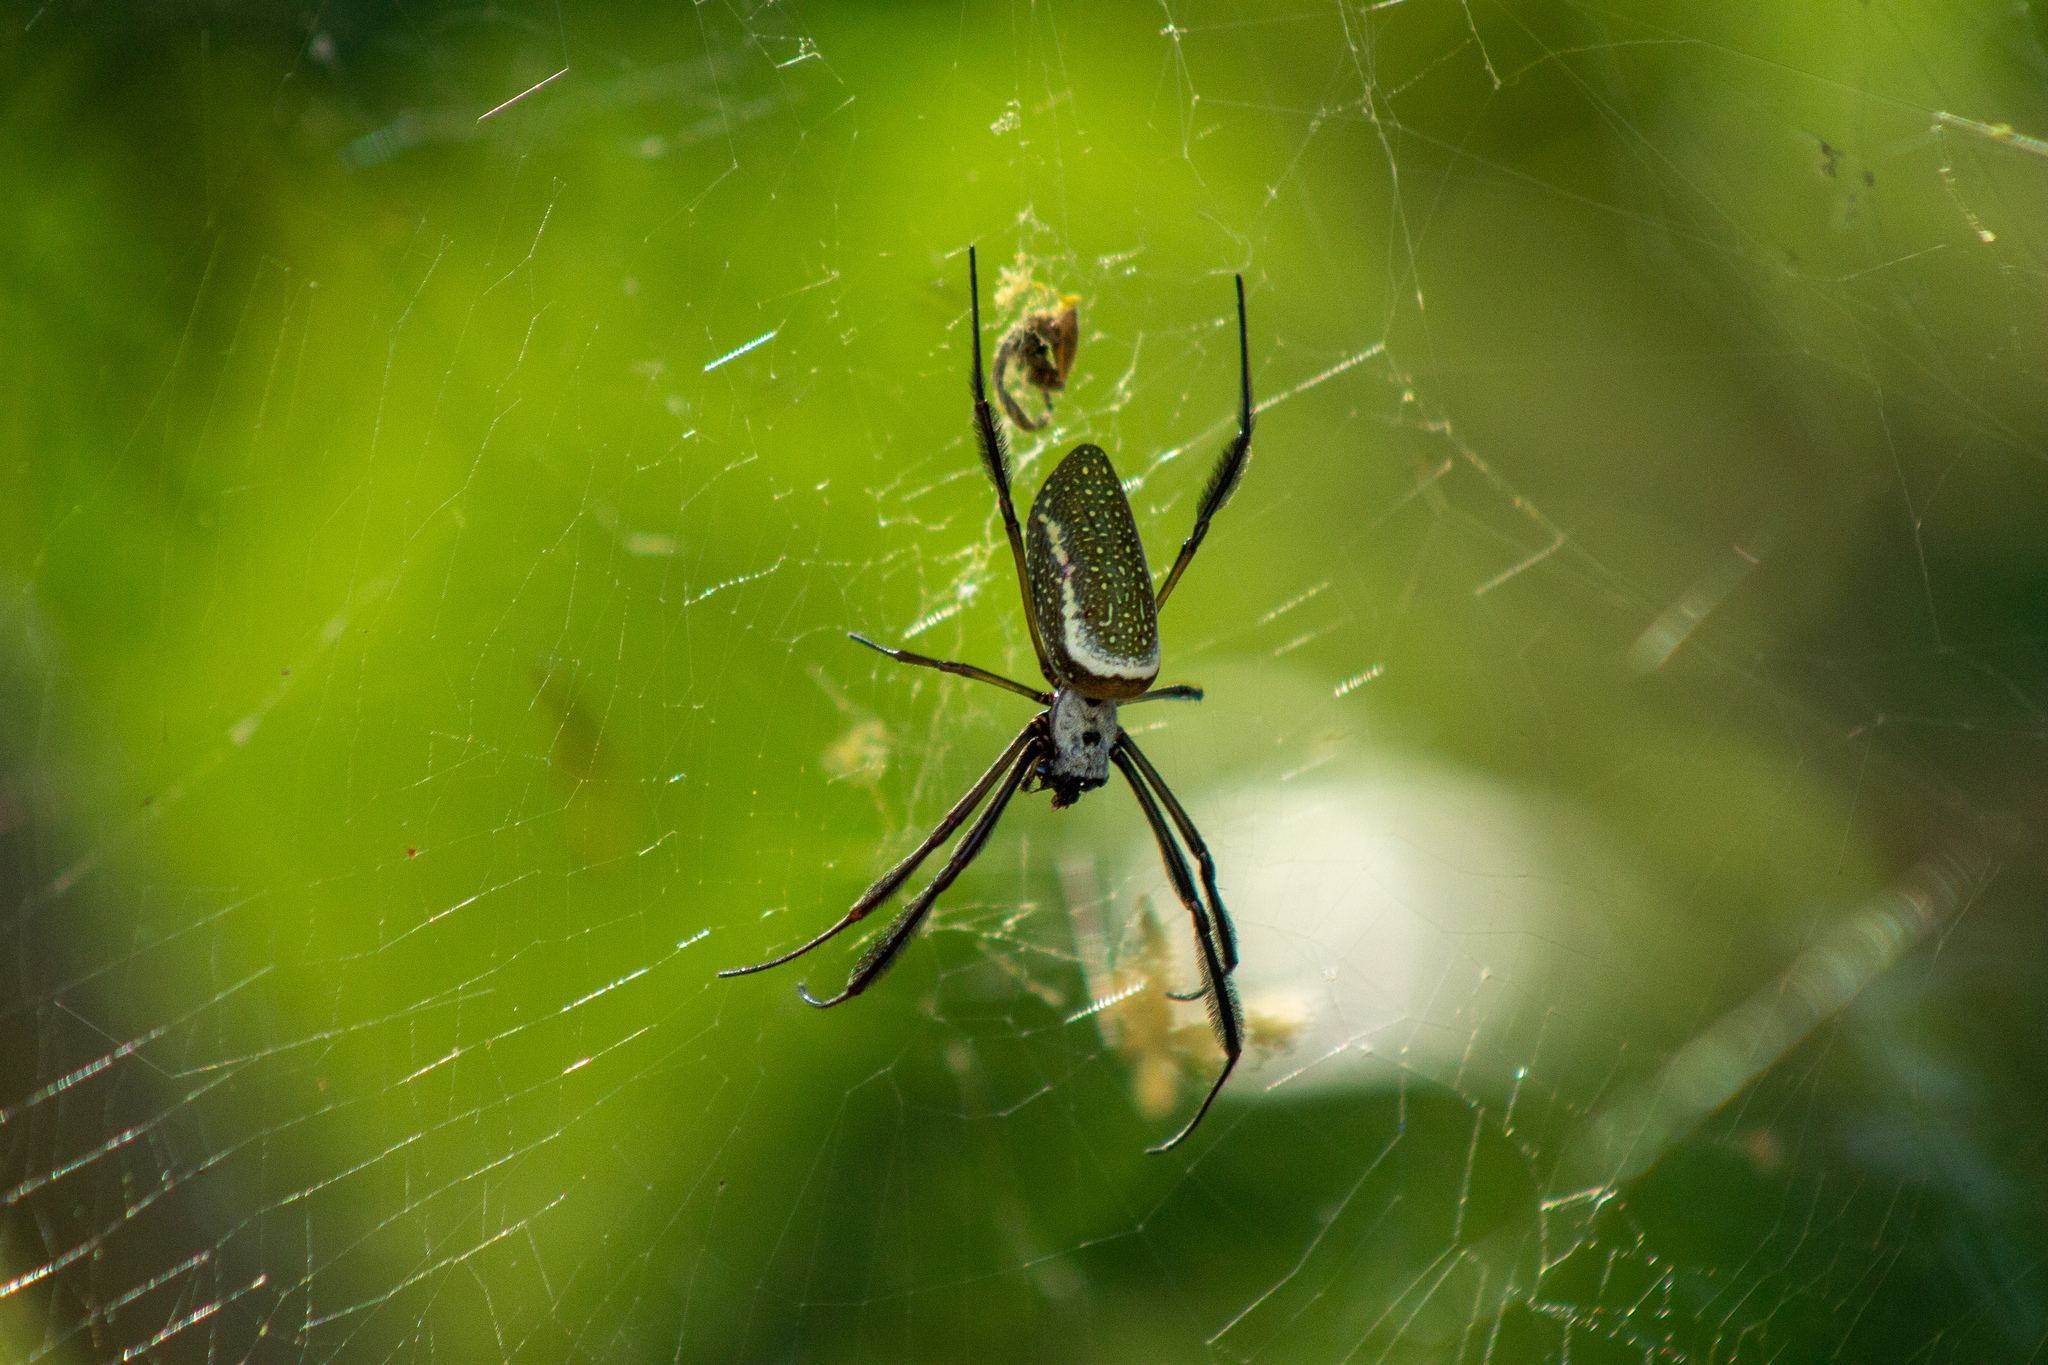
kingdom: Animalia
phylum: Arthropoda
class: Arachnida
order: Araneae
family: Araneidae
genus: Trichonephila
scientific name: Trichonephila clavipes
